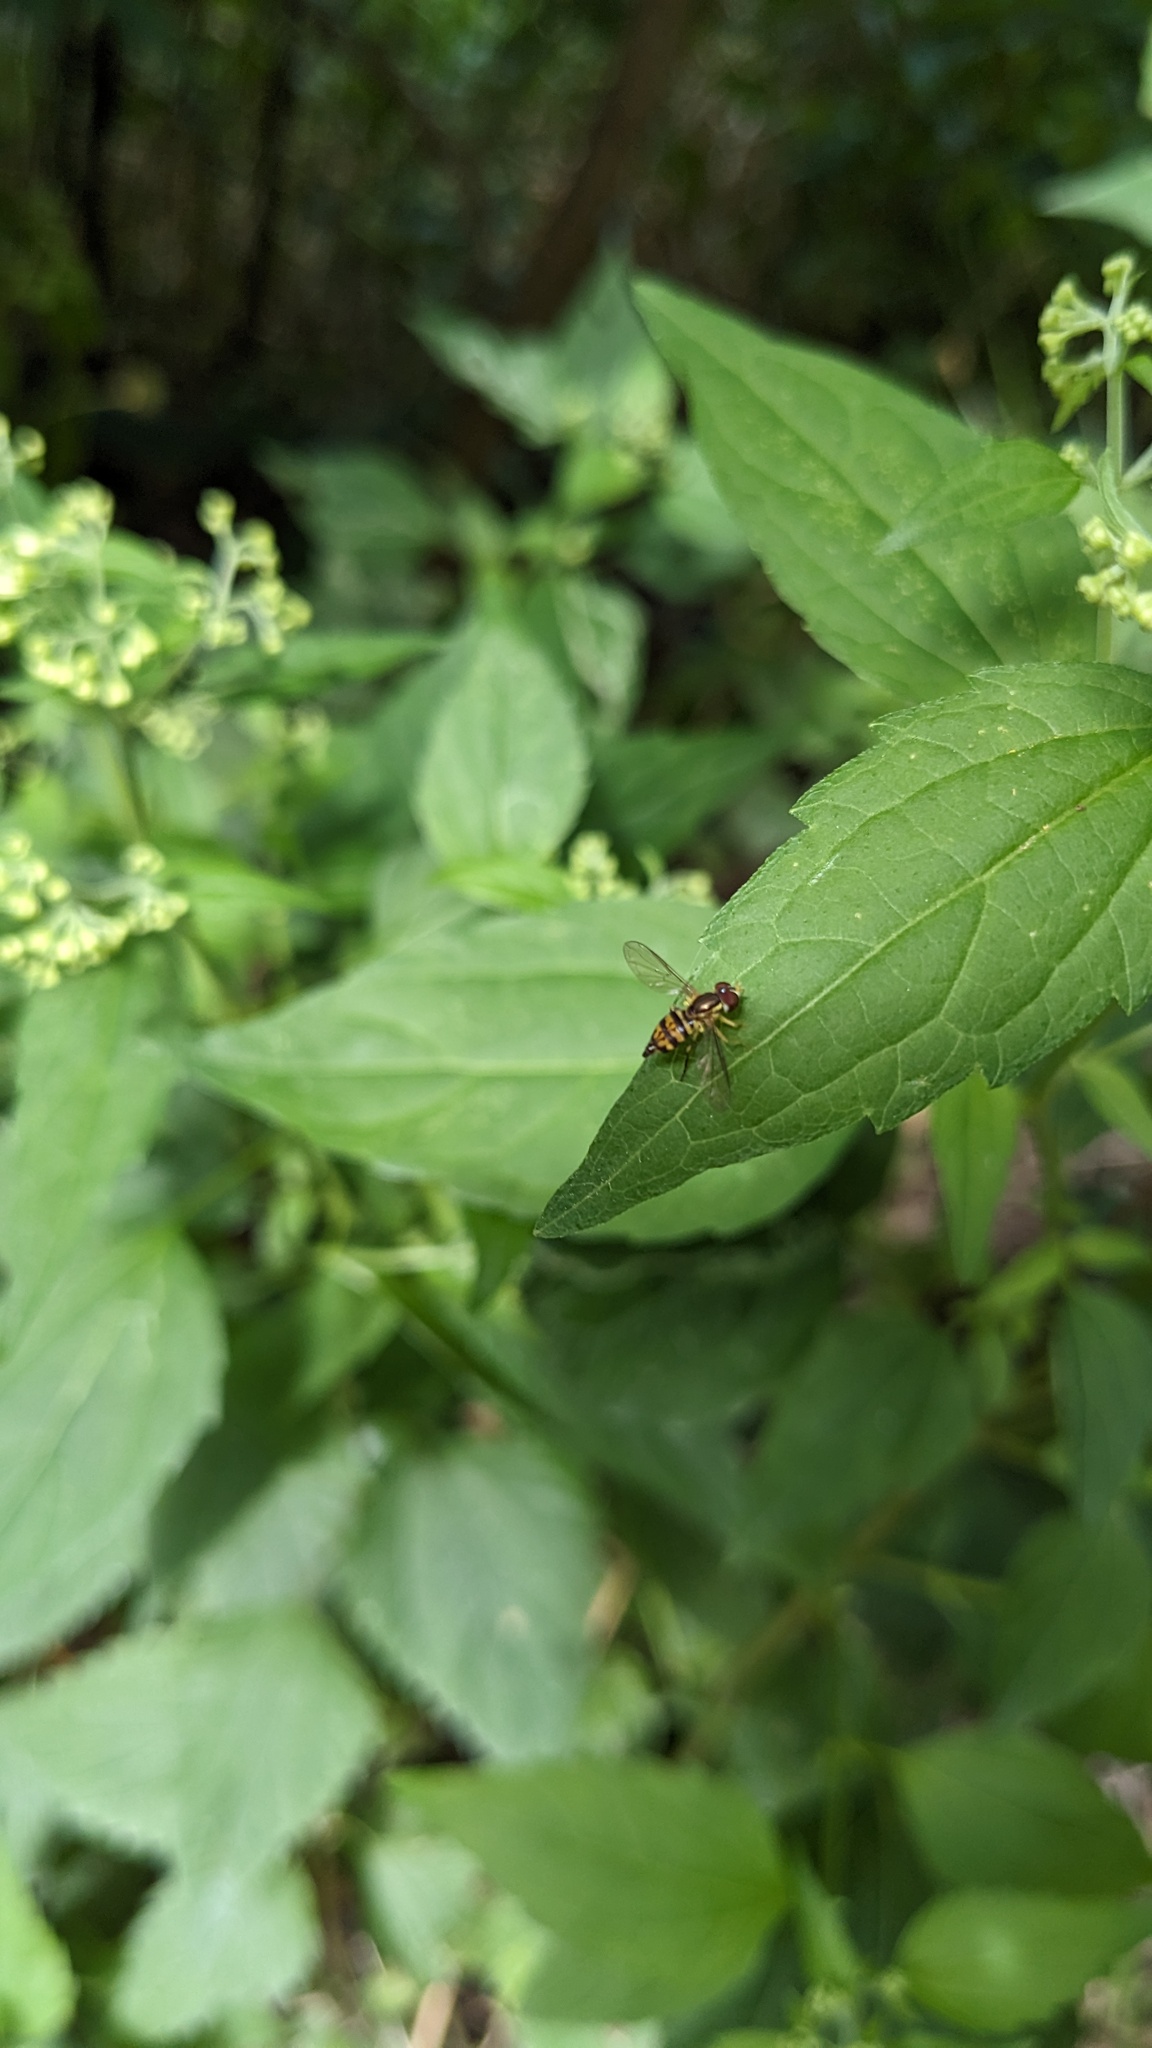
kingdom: Animalia
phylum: Arthropoda
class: Insecta
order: Diptera
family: Syrphidae
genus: Toxomerus
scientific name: Toxomerus geminatus
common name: Eastern calligrapher
